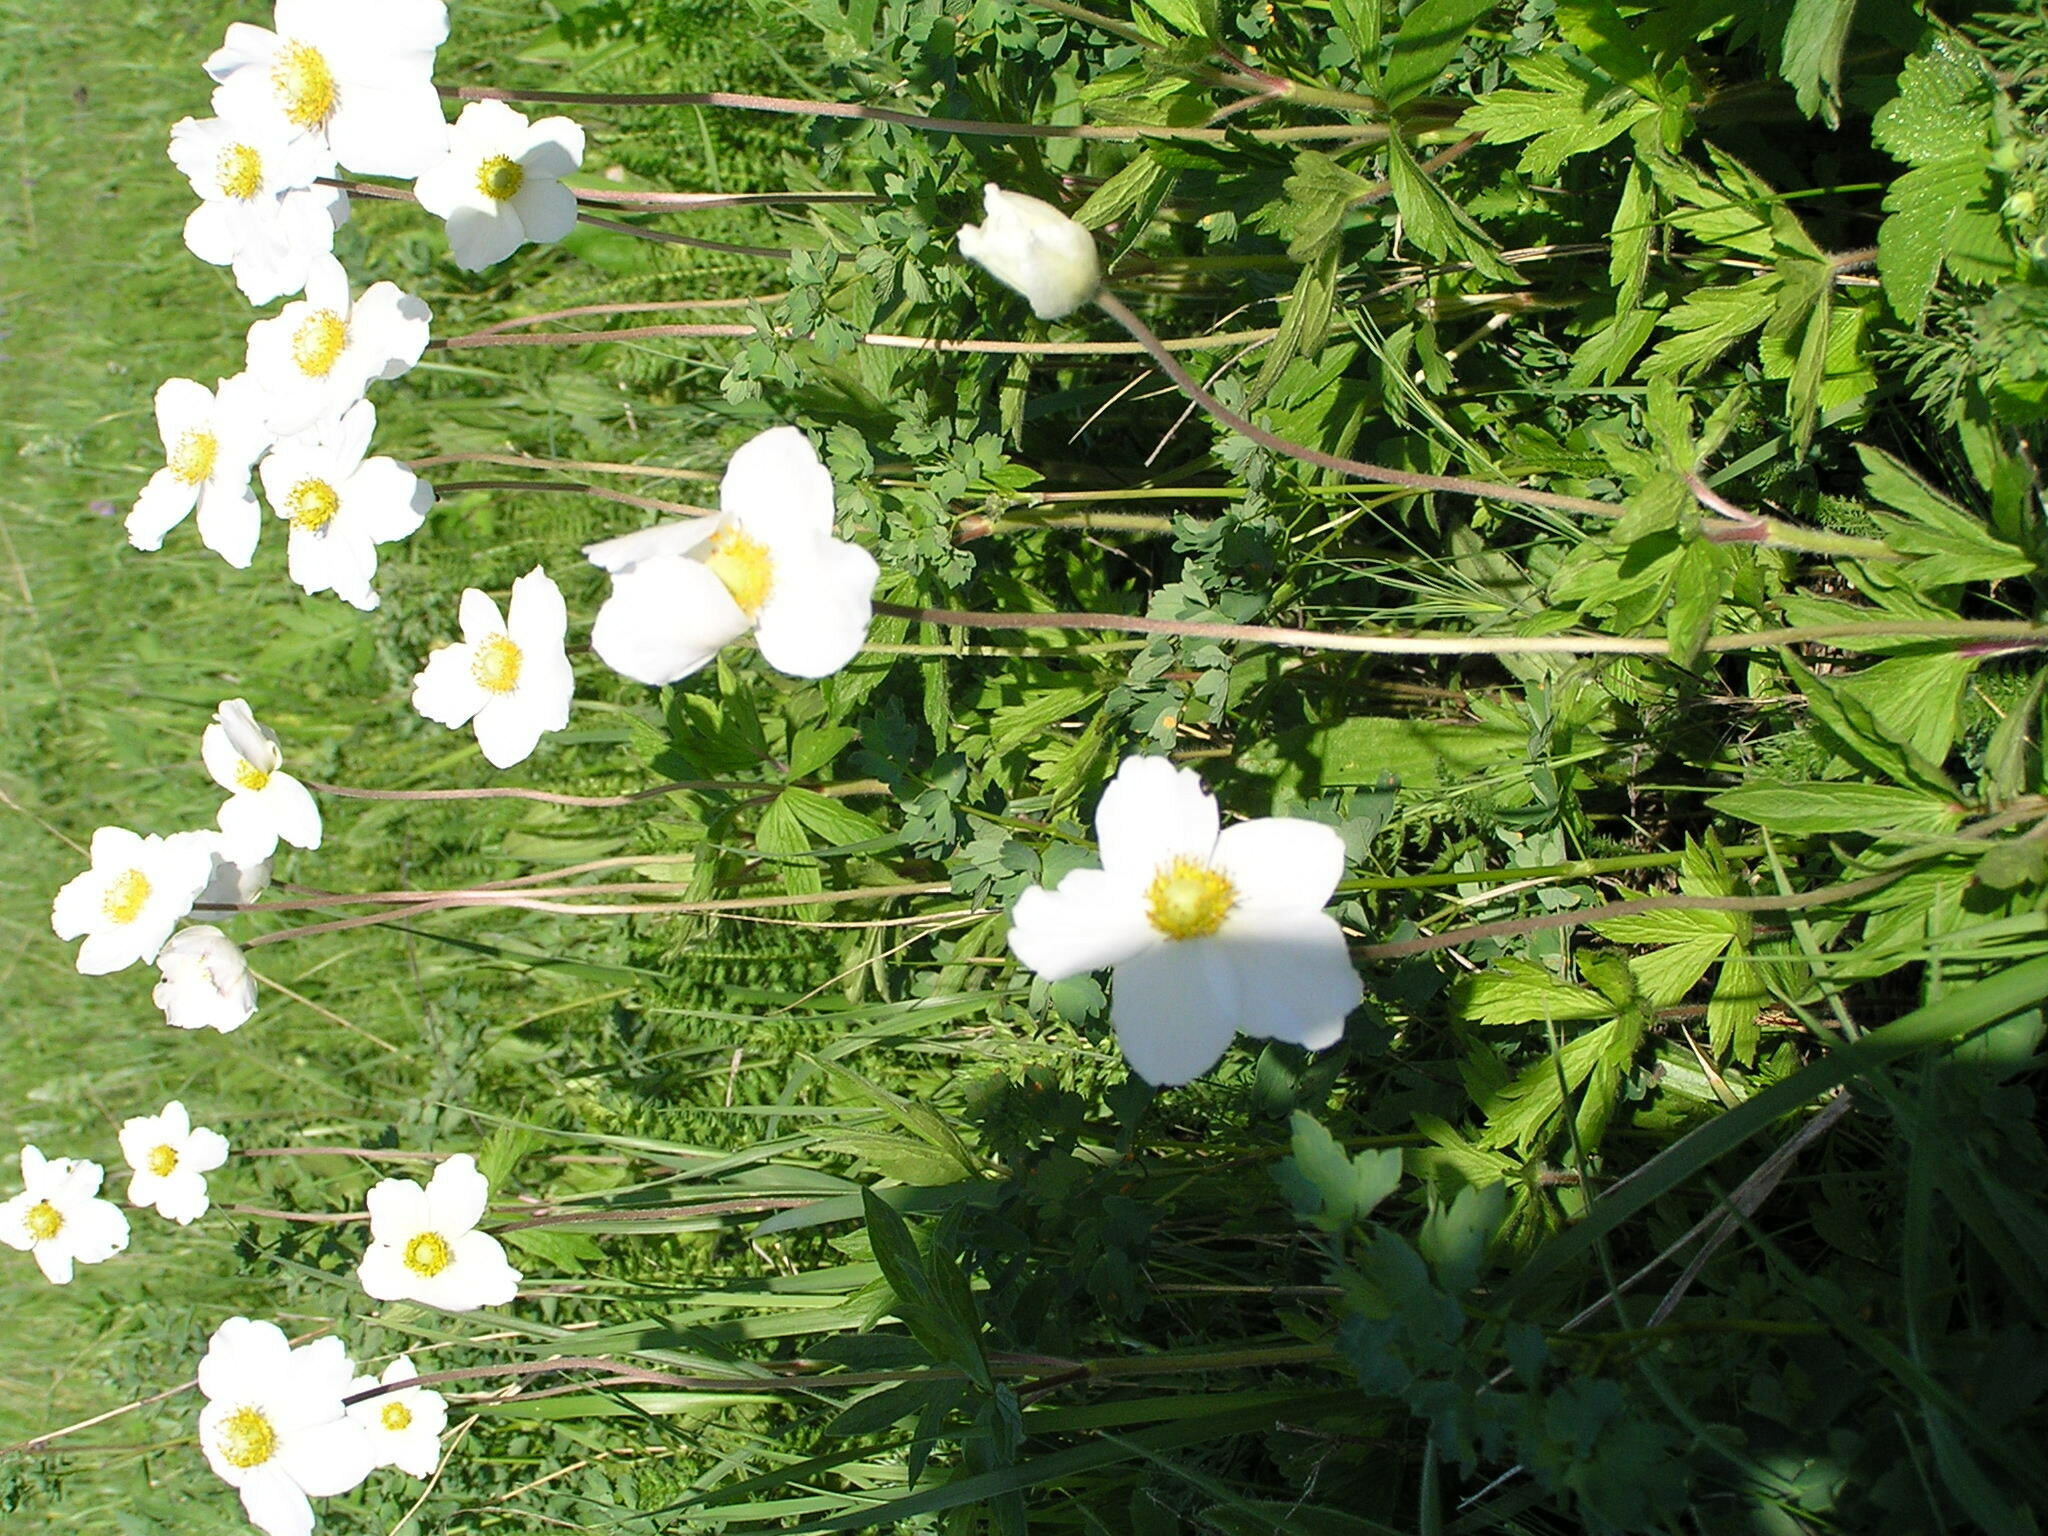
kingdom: Plantae
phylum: Tracheophyta
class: Magnoliopsida
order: Ranunculales
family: Ranunculaceae
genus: Anemone
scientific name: Anemone sylvestris
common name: Snowdrop anemone
